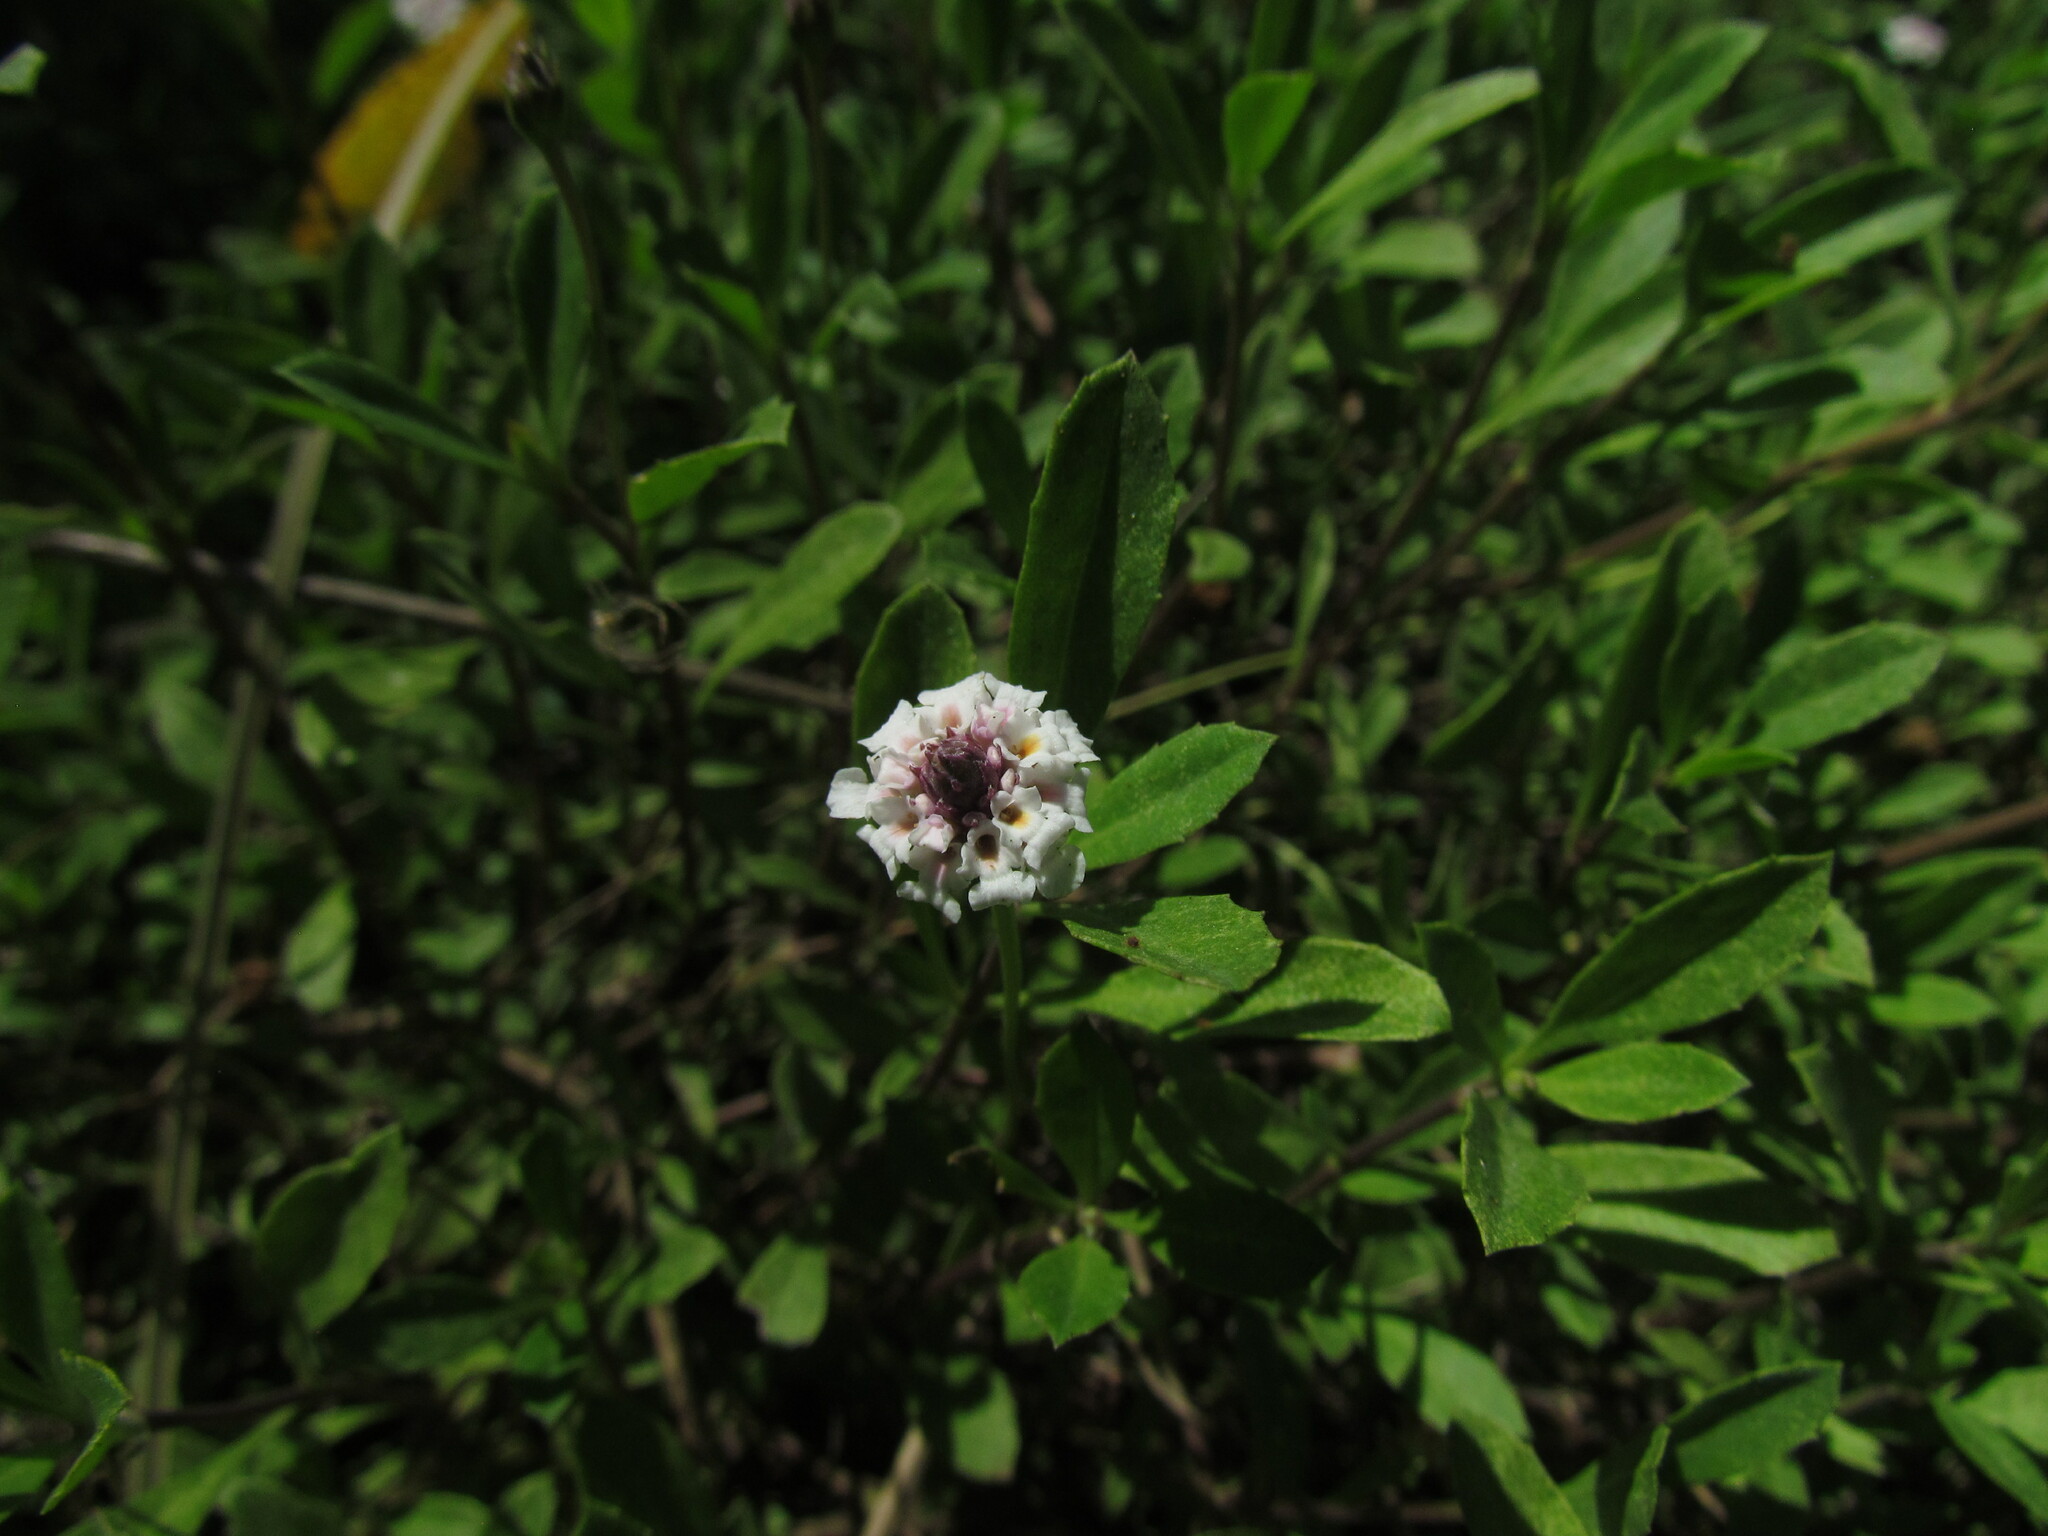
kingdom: Plantae
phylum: Tracheophyta
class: Magnoliopsida
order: Lamiales
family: Verbenaceae
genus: Phyla
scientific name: Phyla nodiflora
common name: Frogfruit
